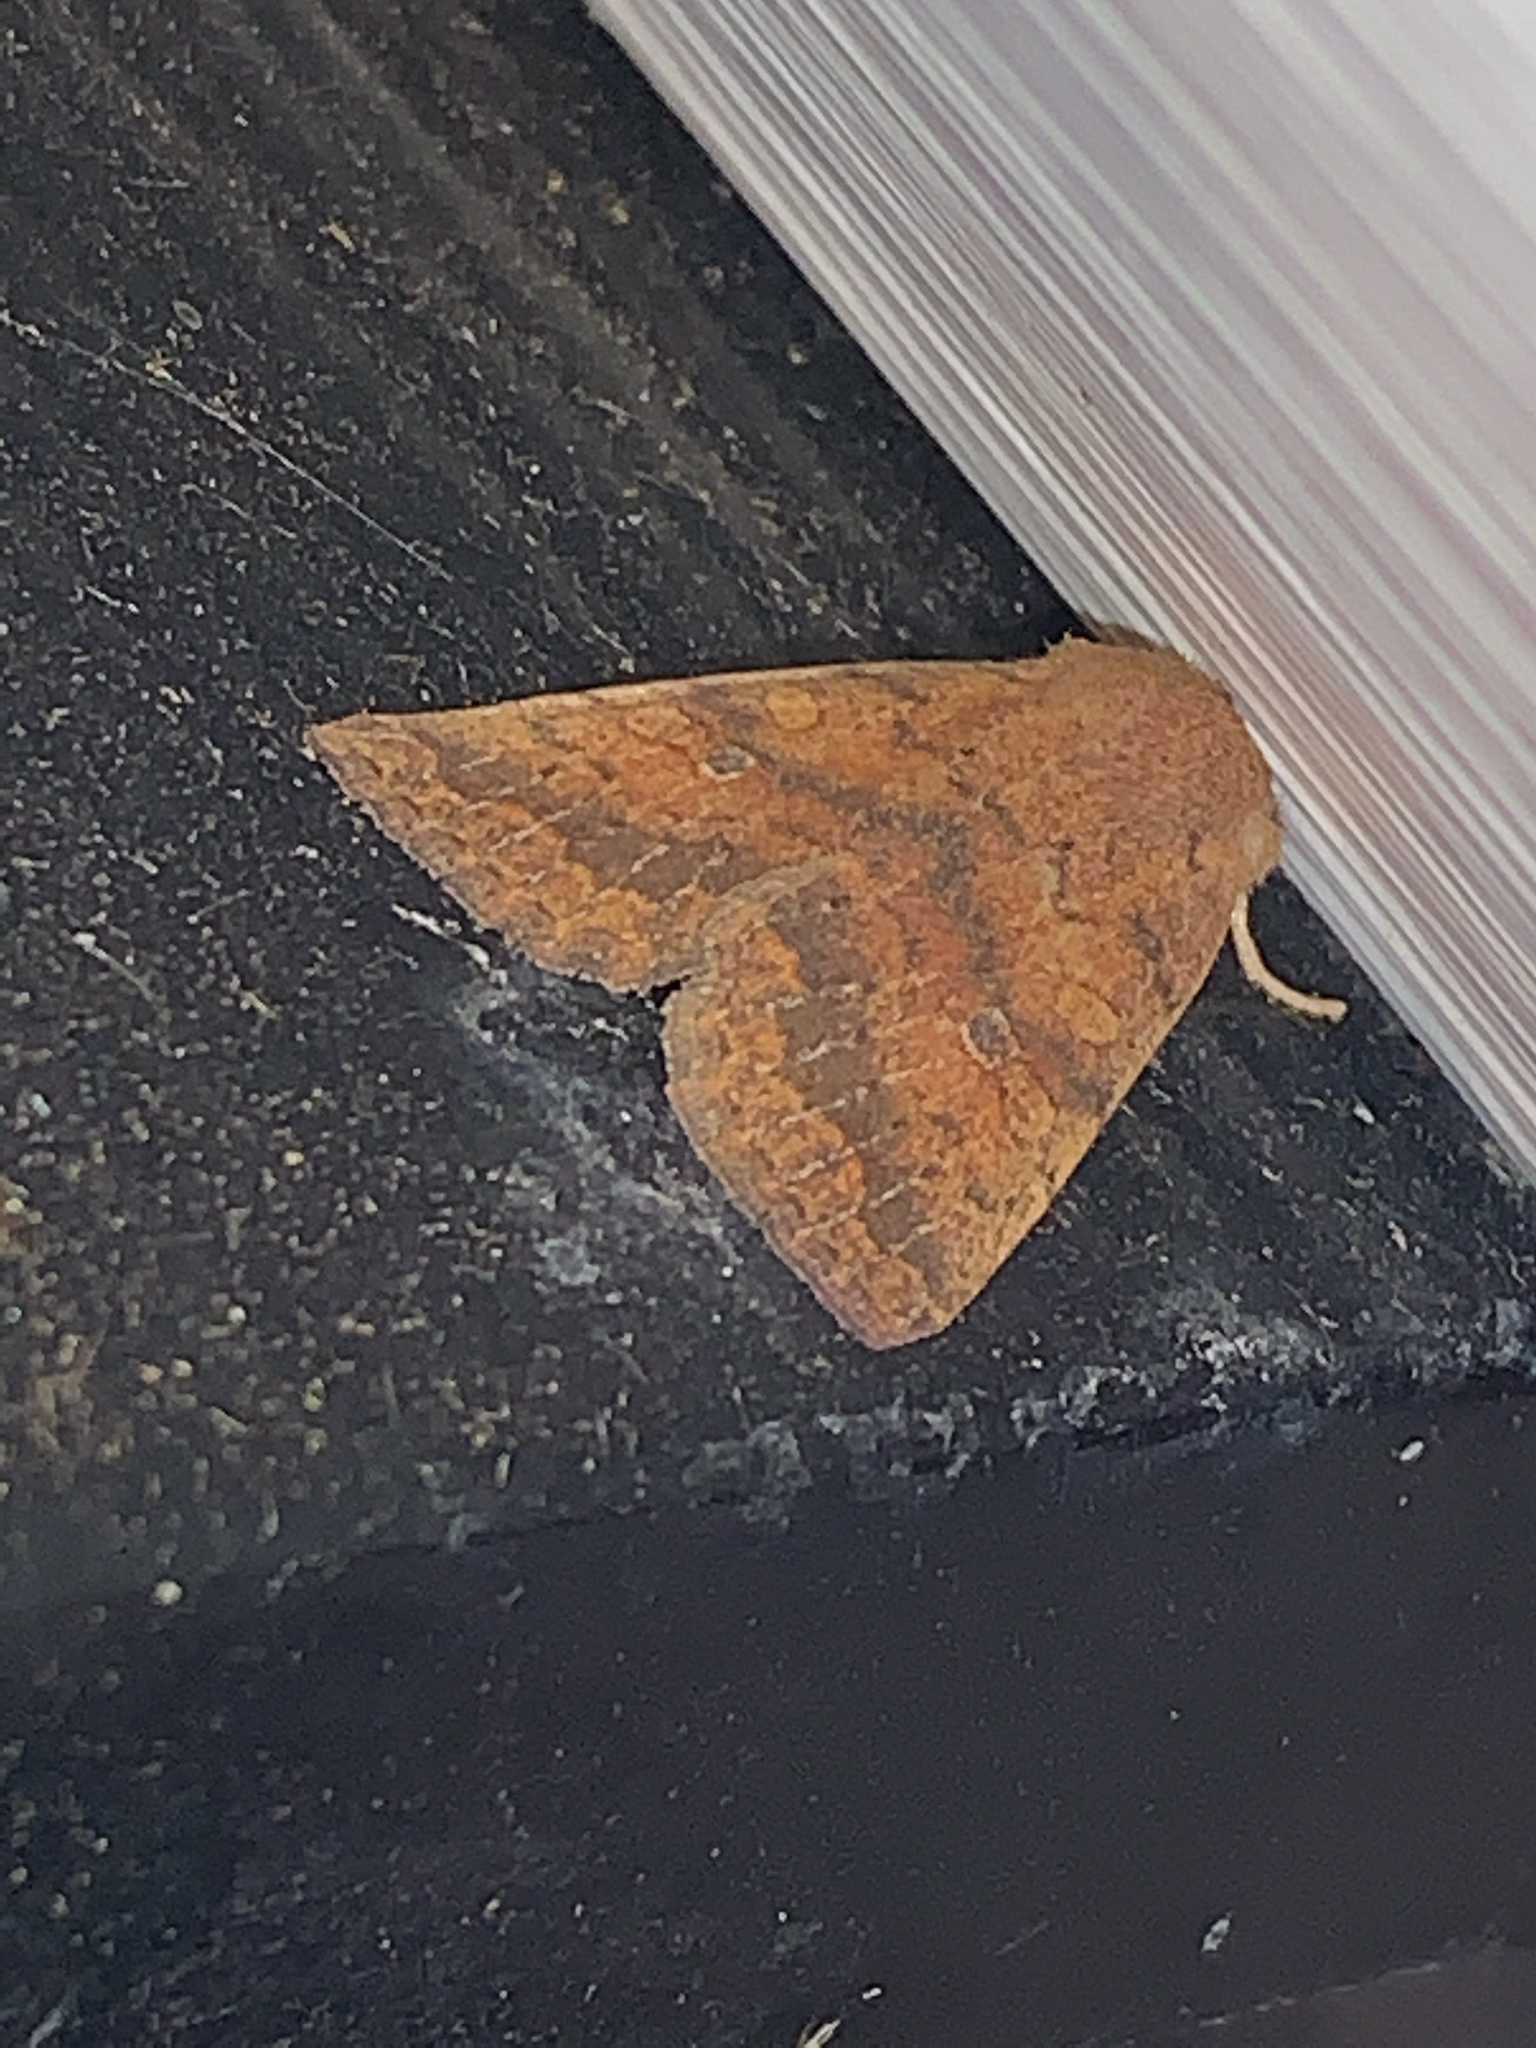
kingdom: Animalia
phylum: Arthropoda
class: Insecta
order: Lepidoptera
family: Noctuidae
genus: Agrochola
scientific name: Agrochola bicolorago
